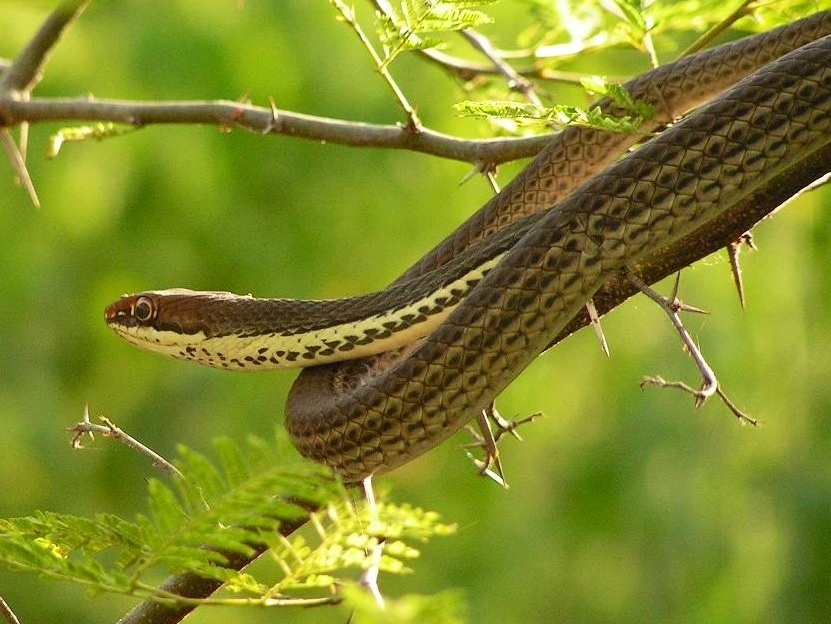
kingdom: Animalia
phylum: Chordata
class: Squamata
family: Colubridae
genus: Masticophis
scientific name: Masticophis bilineatus
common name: Sonoran whipsnake
